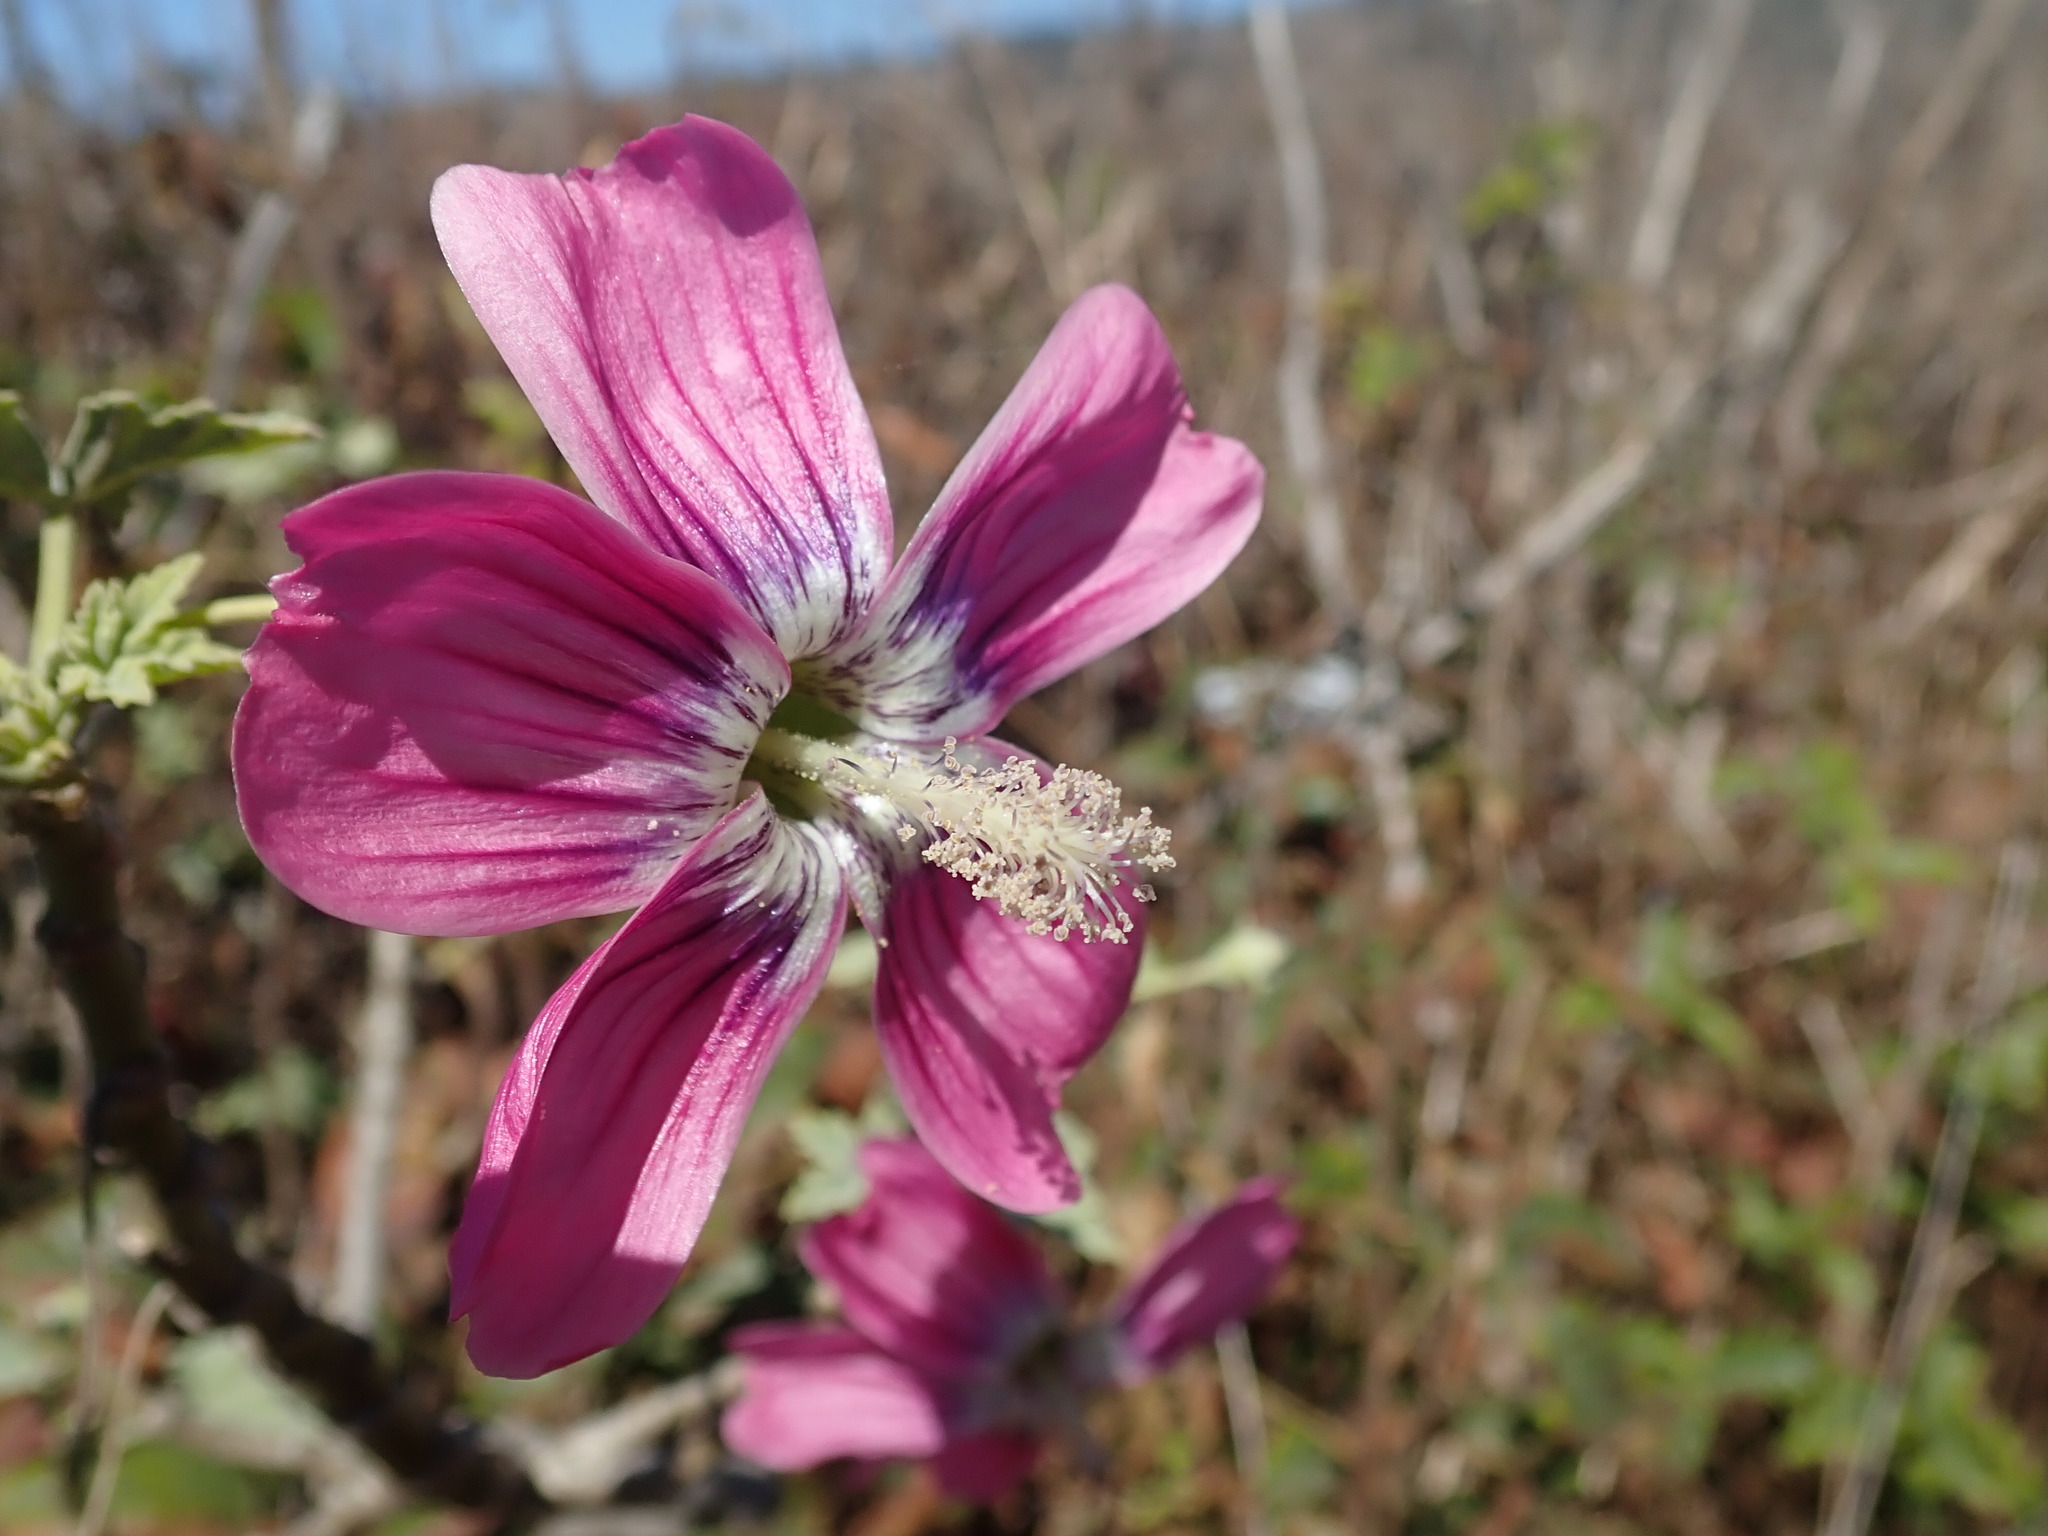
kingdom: Plantae
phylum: Tracheophyta
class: Magnoliopsida
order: Malvales
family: Malvaceae
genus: Malva
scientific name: Malva assurgentiflora
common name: Island mallow
